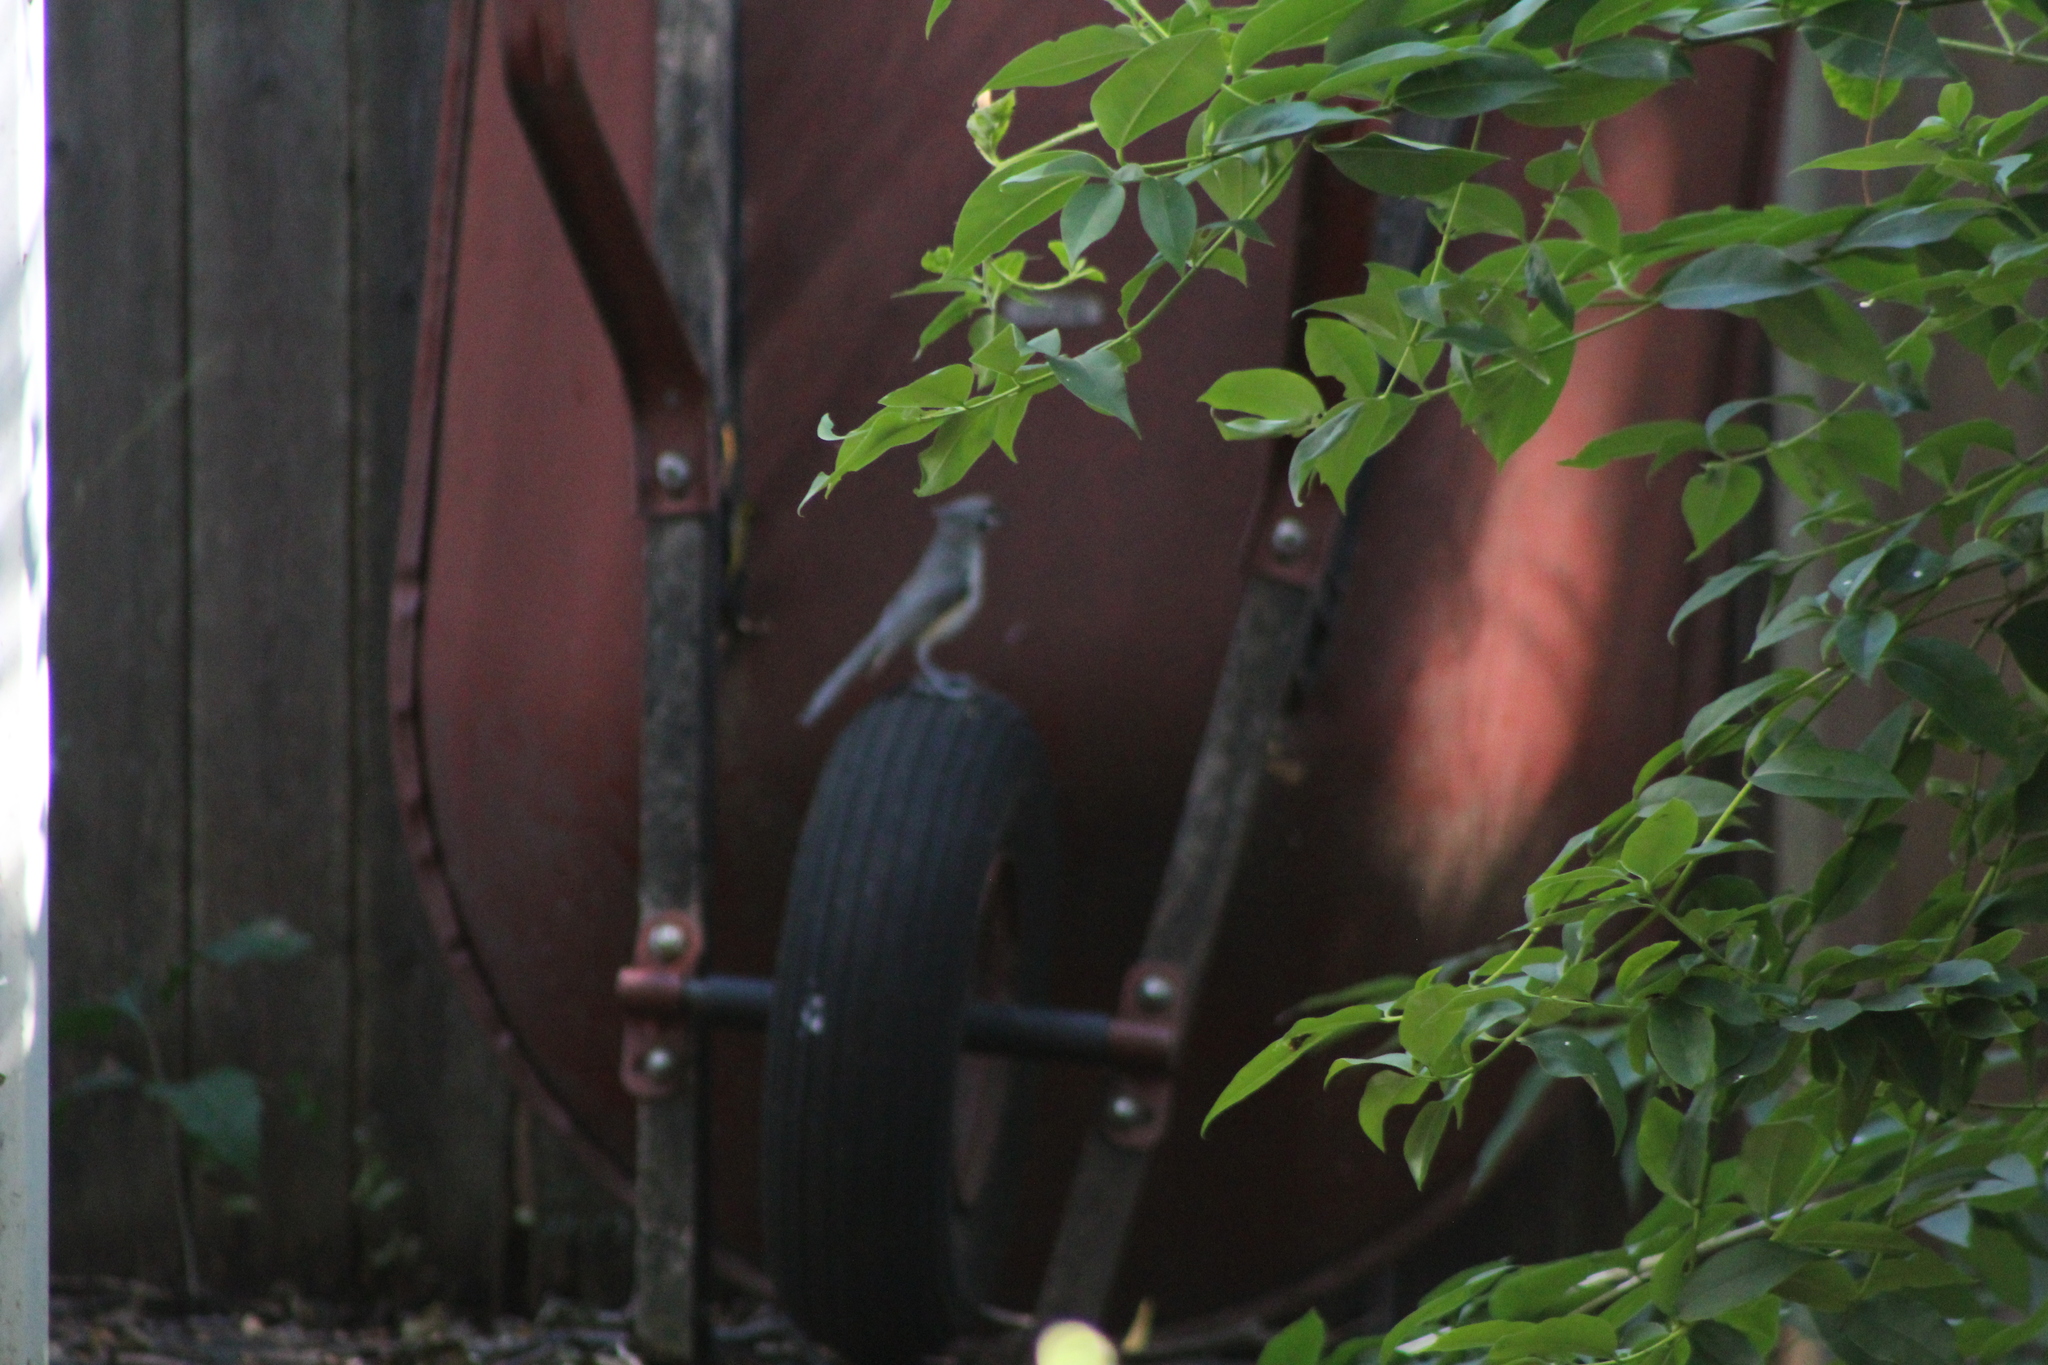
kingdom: Animalia
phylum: Chordata
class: Aves
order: Passeriformes
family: Paridae
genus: Baeolophus
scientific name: Baeolophus bicolor
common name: Tufted titmouse
